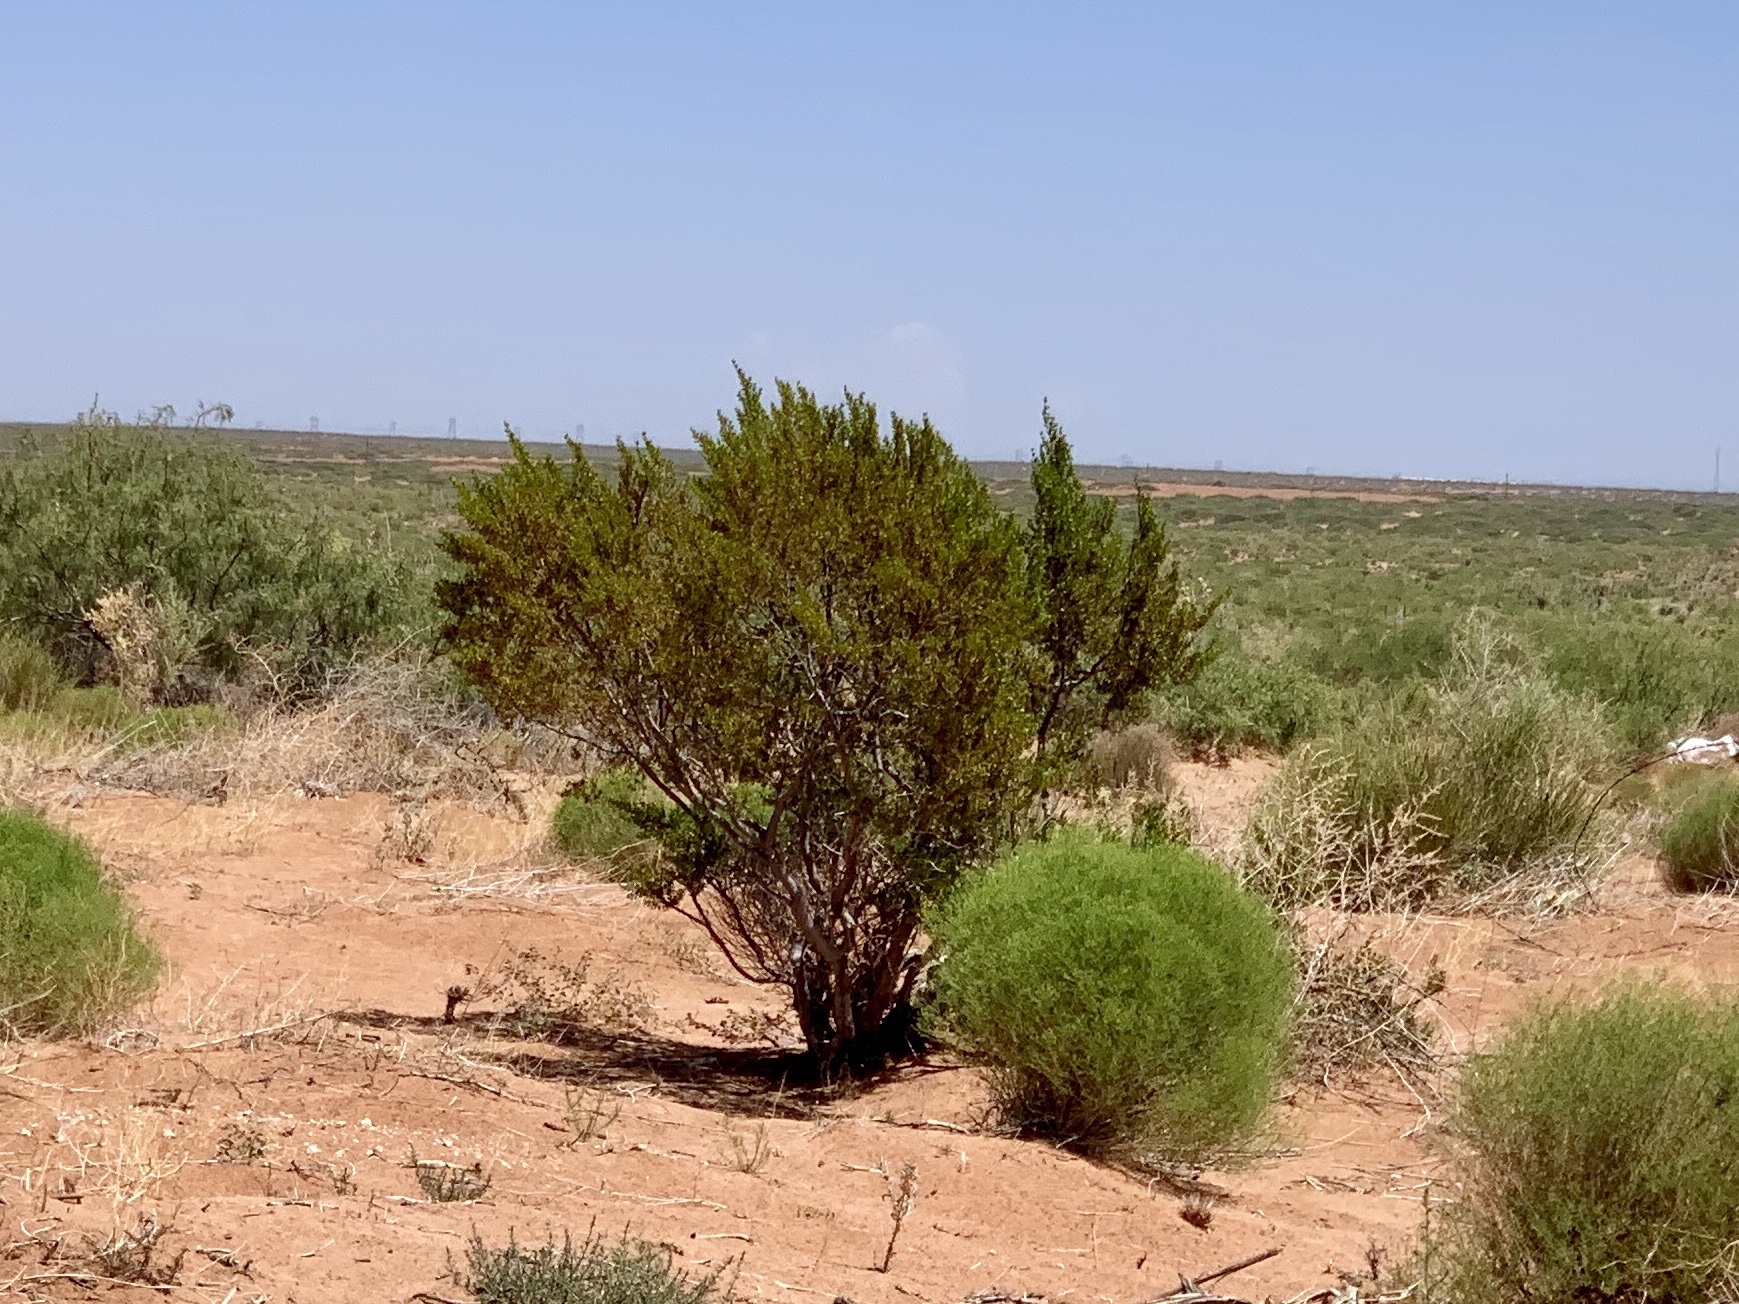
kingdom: Plantae
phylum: Tracheophyta
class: Magnoliopsida
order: Zygophyllales
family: Zygophyllaceae
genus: Larrea
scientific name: Larrea tridentata
